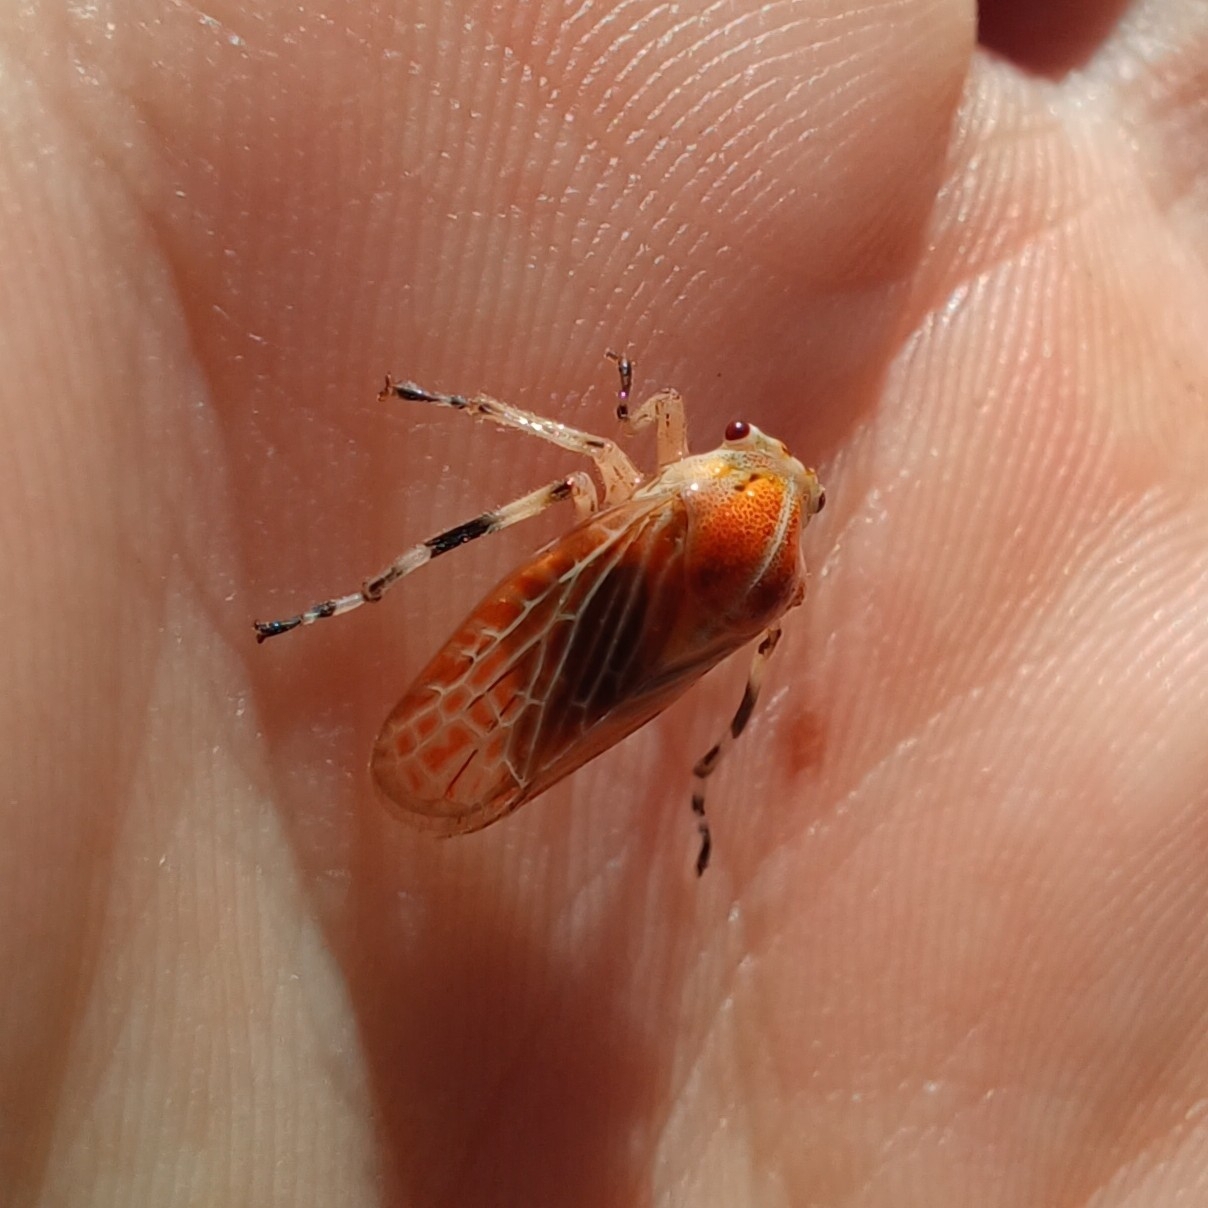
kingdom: Animalia
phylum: Arthropoda
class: Insecta
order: Hemiptera
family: Aetalionidae
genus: Aetalion
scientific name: Aetalion reticulatum
